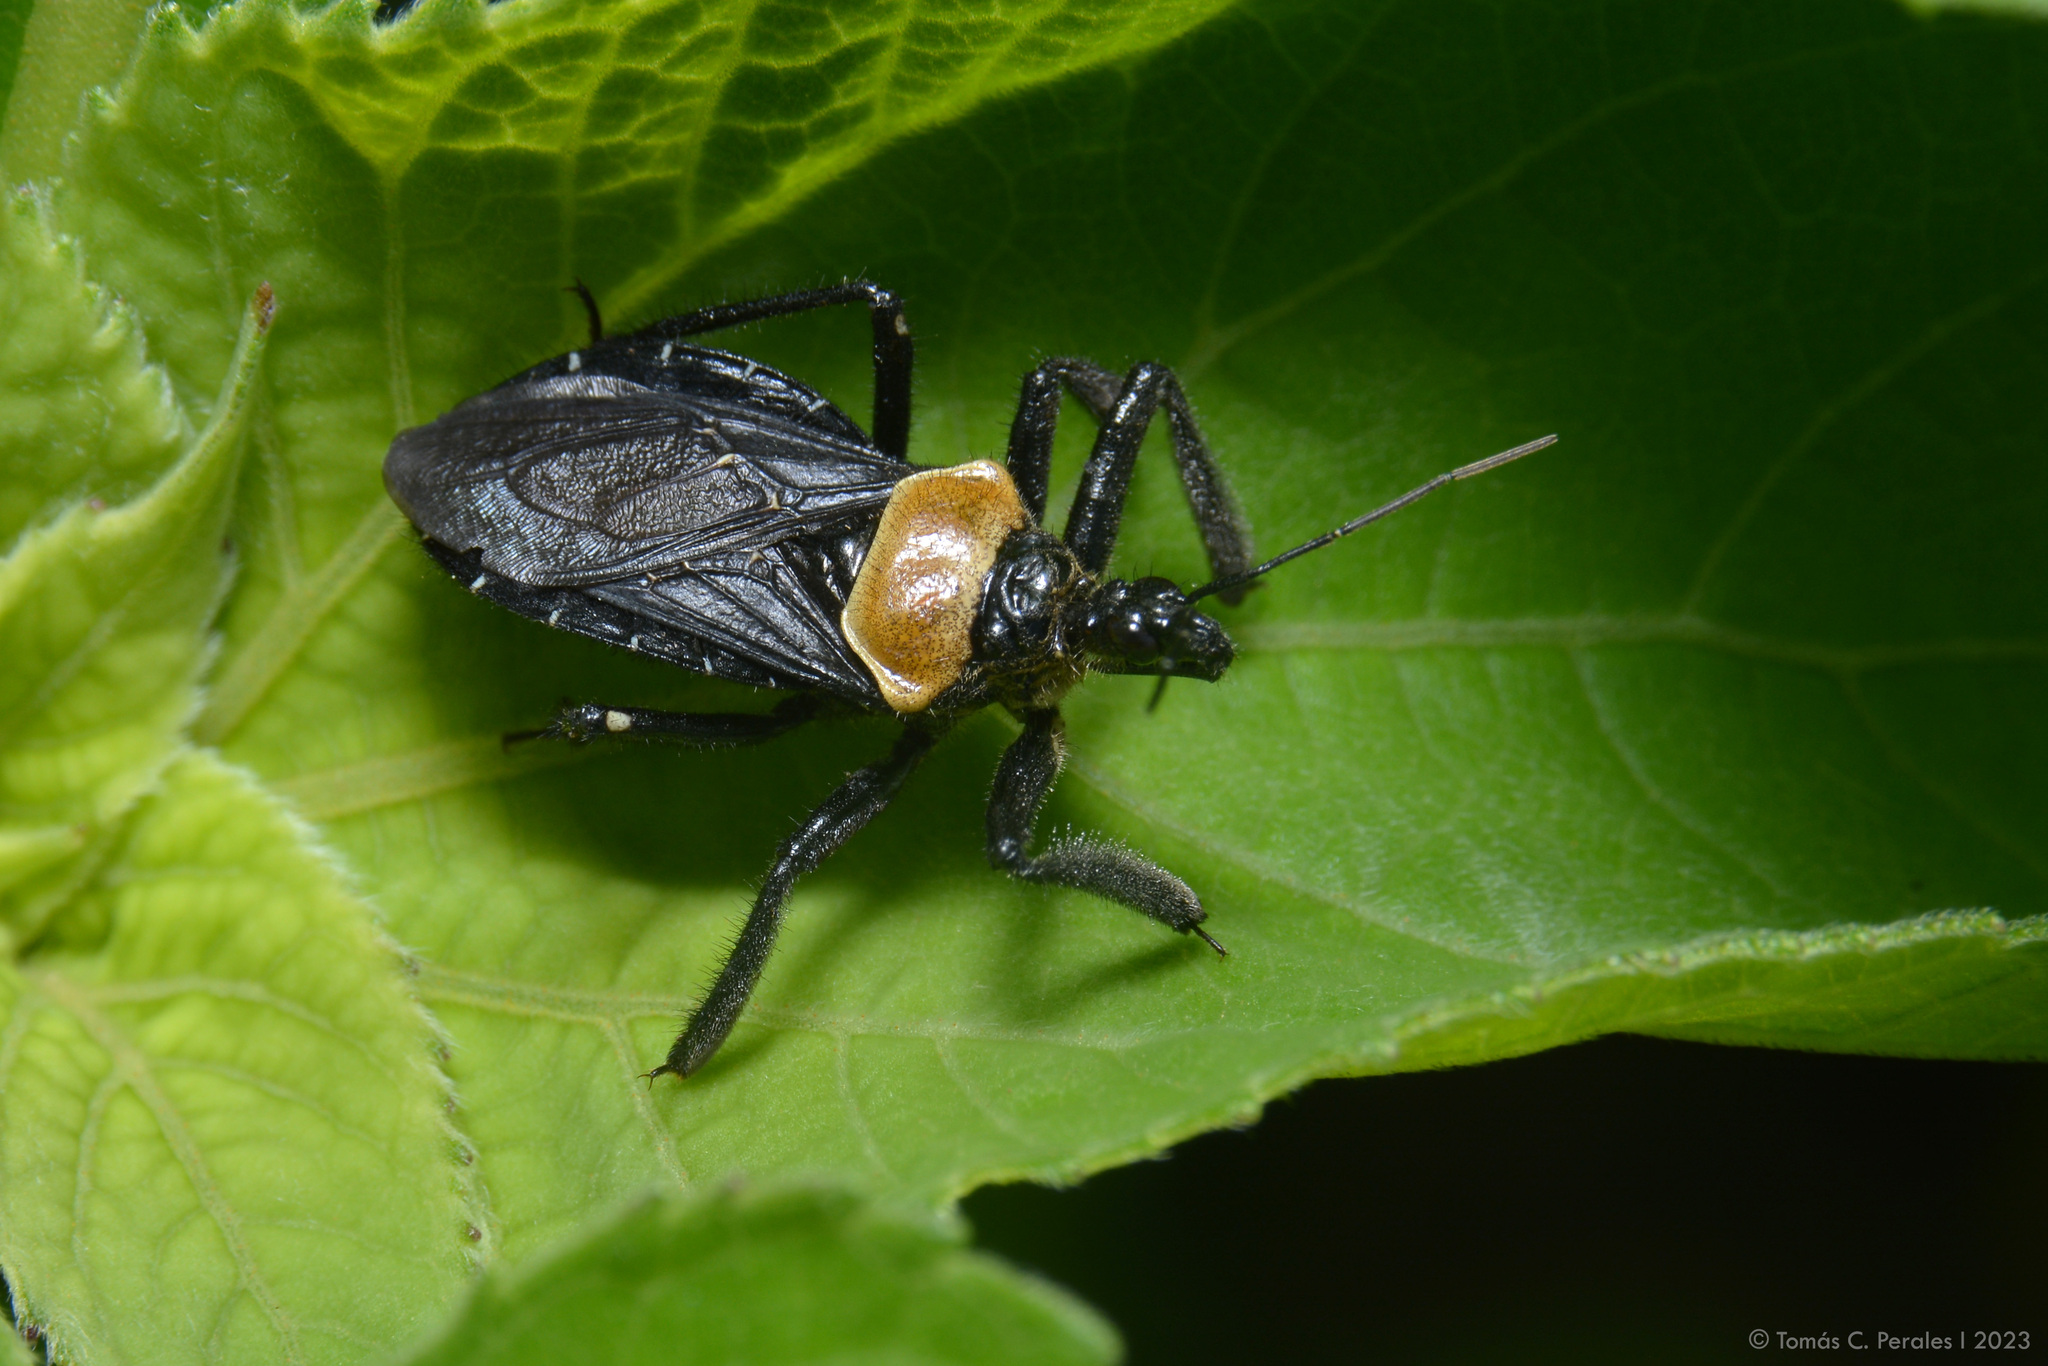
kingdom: Animalia
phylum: Arthropoda
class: Insecta
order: Hemiptera
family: Reduviidae
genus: Apiomerus
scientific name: Apiomerus arnaui
